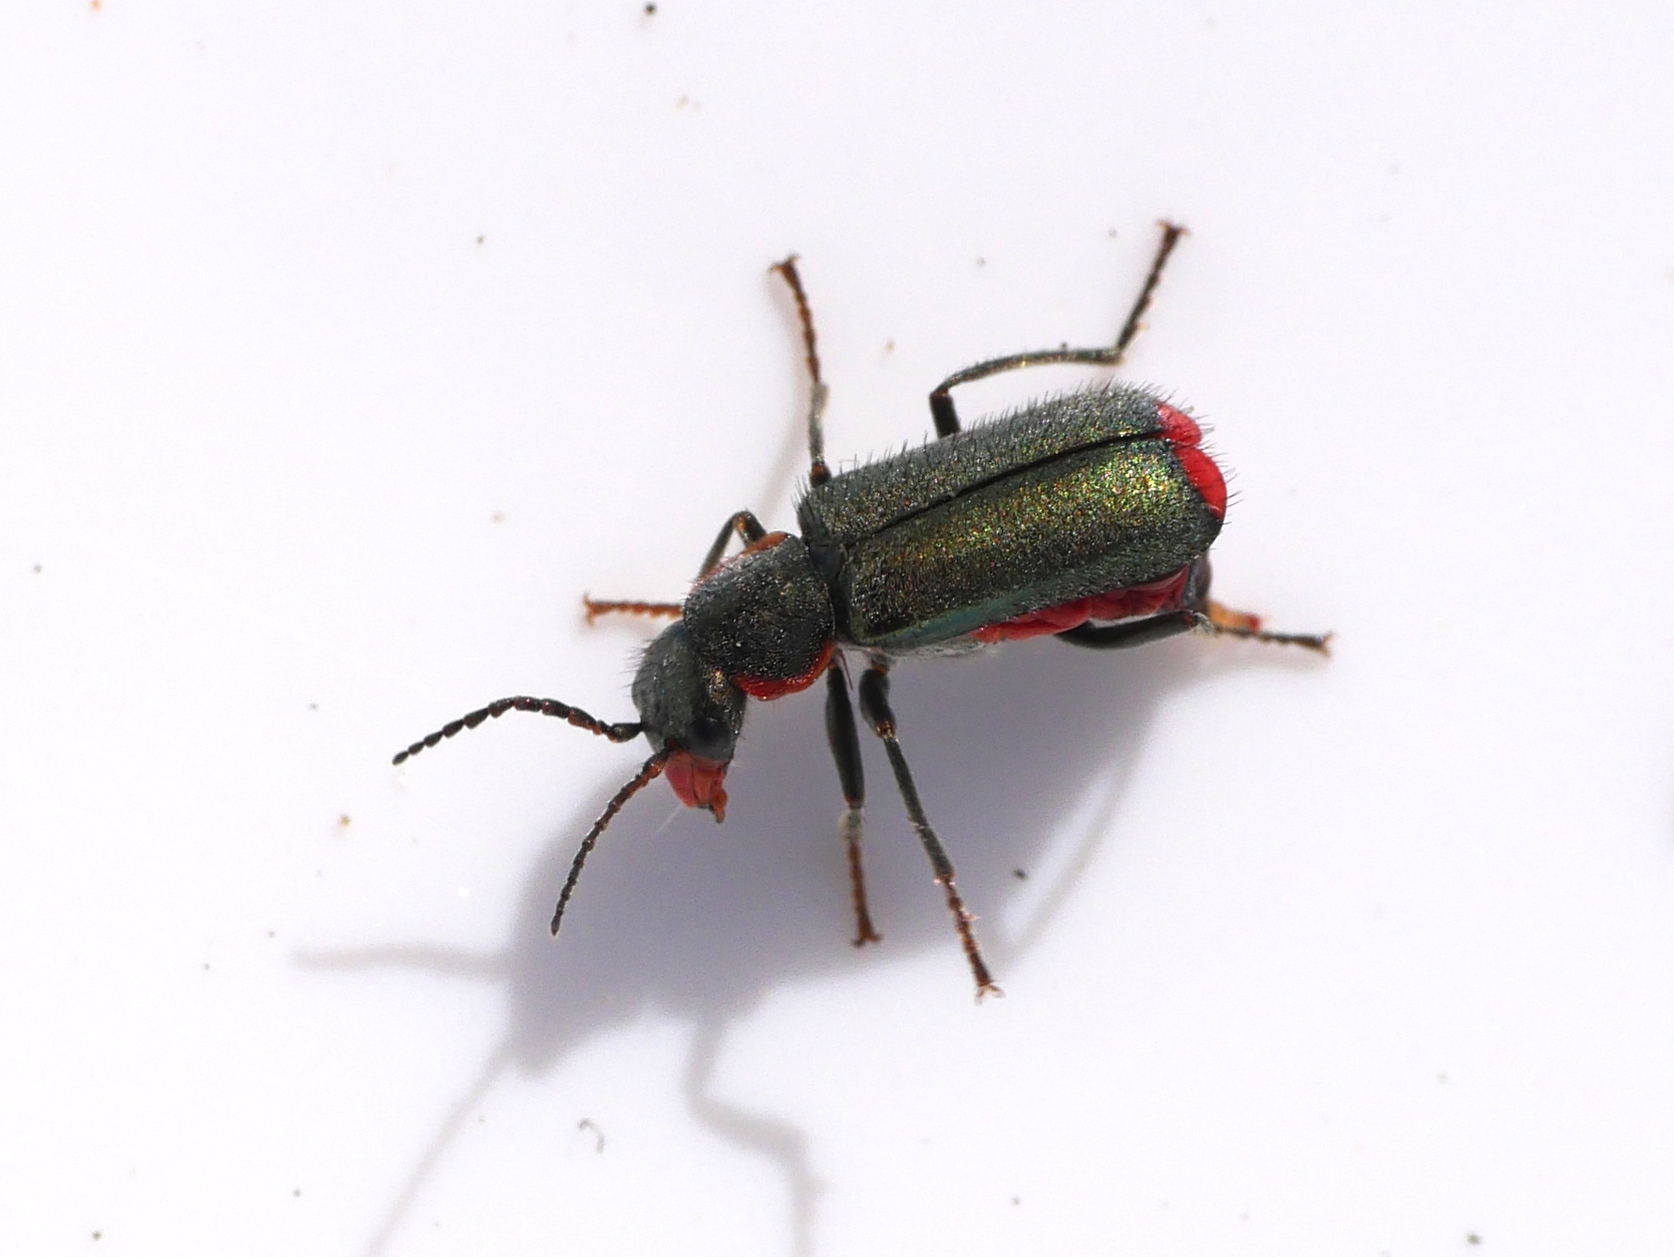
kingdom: Animalia
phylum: Arthropoda
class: Insecta
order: Coleoptera
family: Malachiidae
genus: Clanoptilus
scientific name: Clanoptilus marginellus
